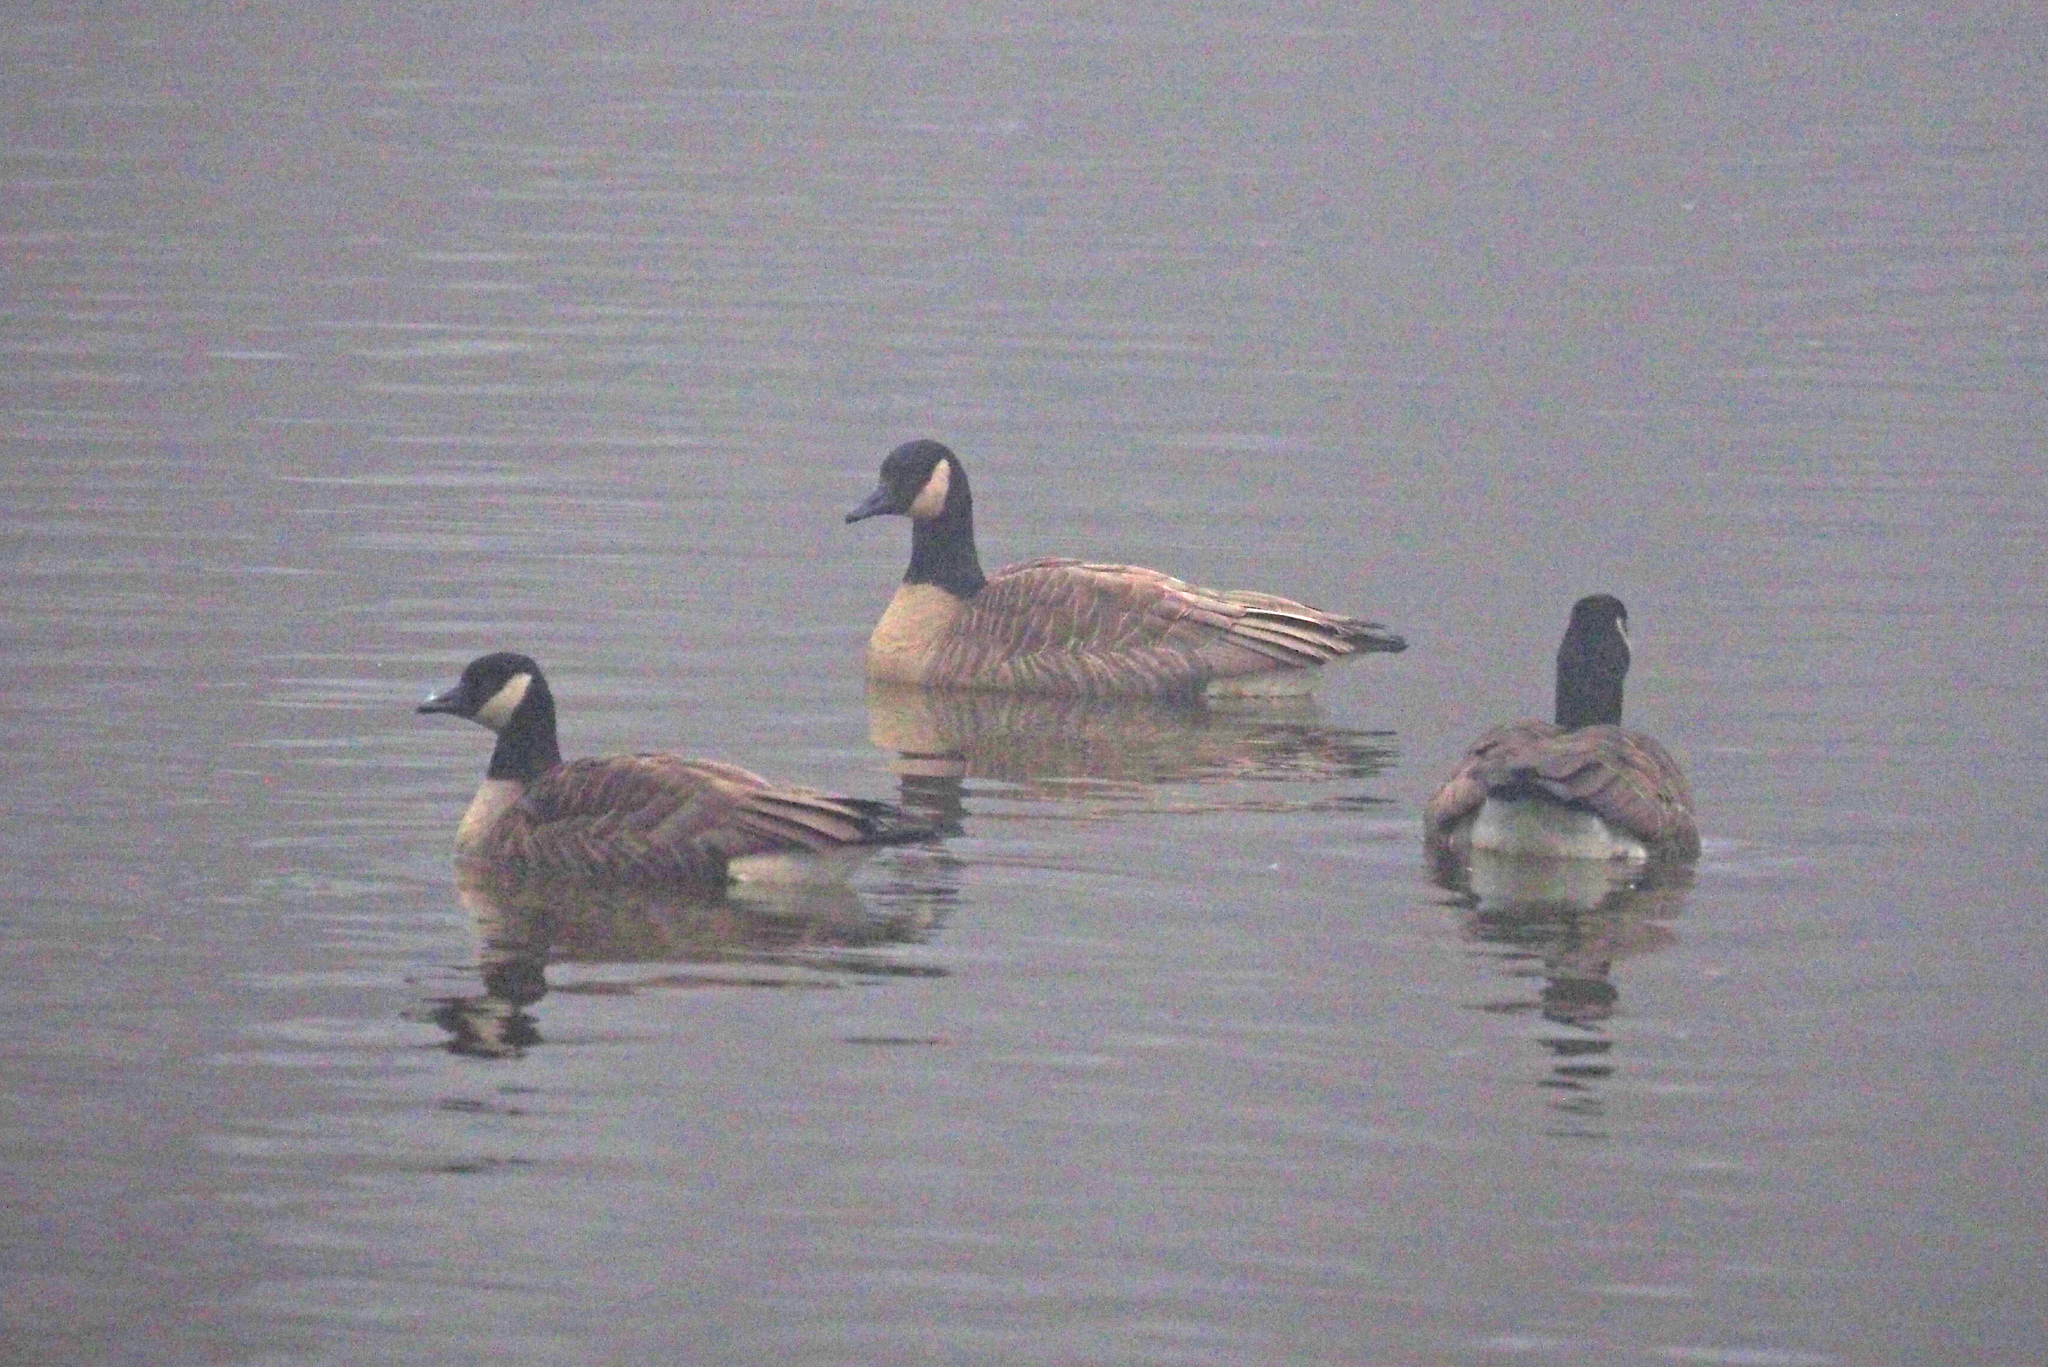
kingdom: Animalia
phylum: Chordata
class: Aves
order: Anseriformes
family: Anatidae
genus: Branta
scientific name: Branta canadensis
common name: Canada goose
